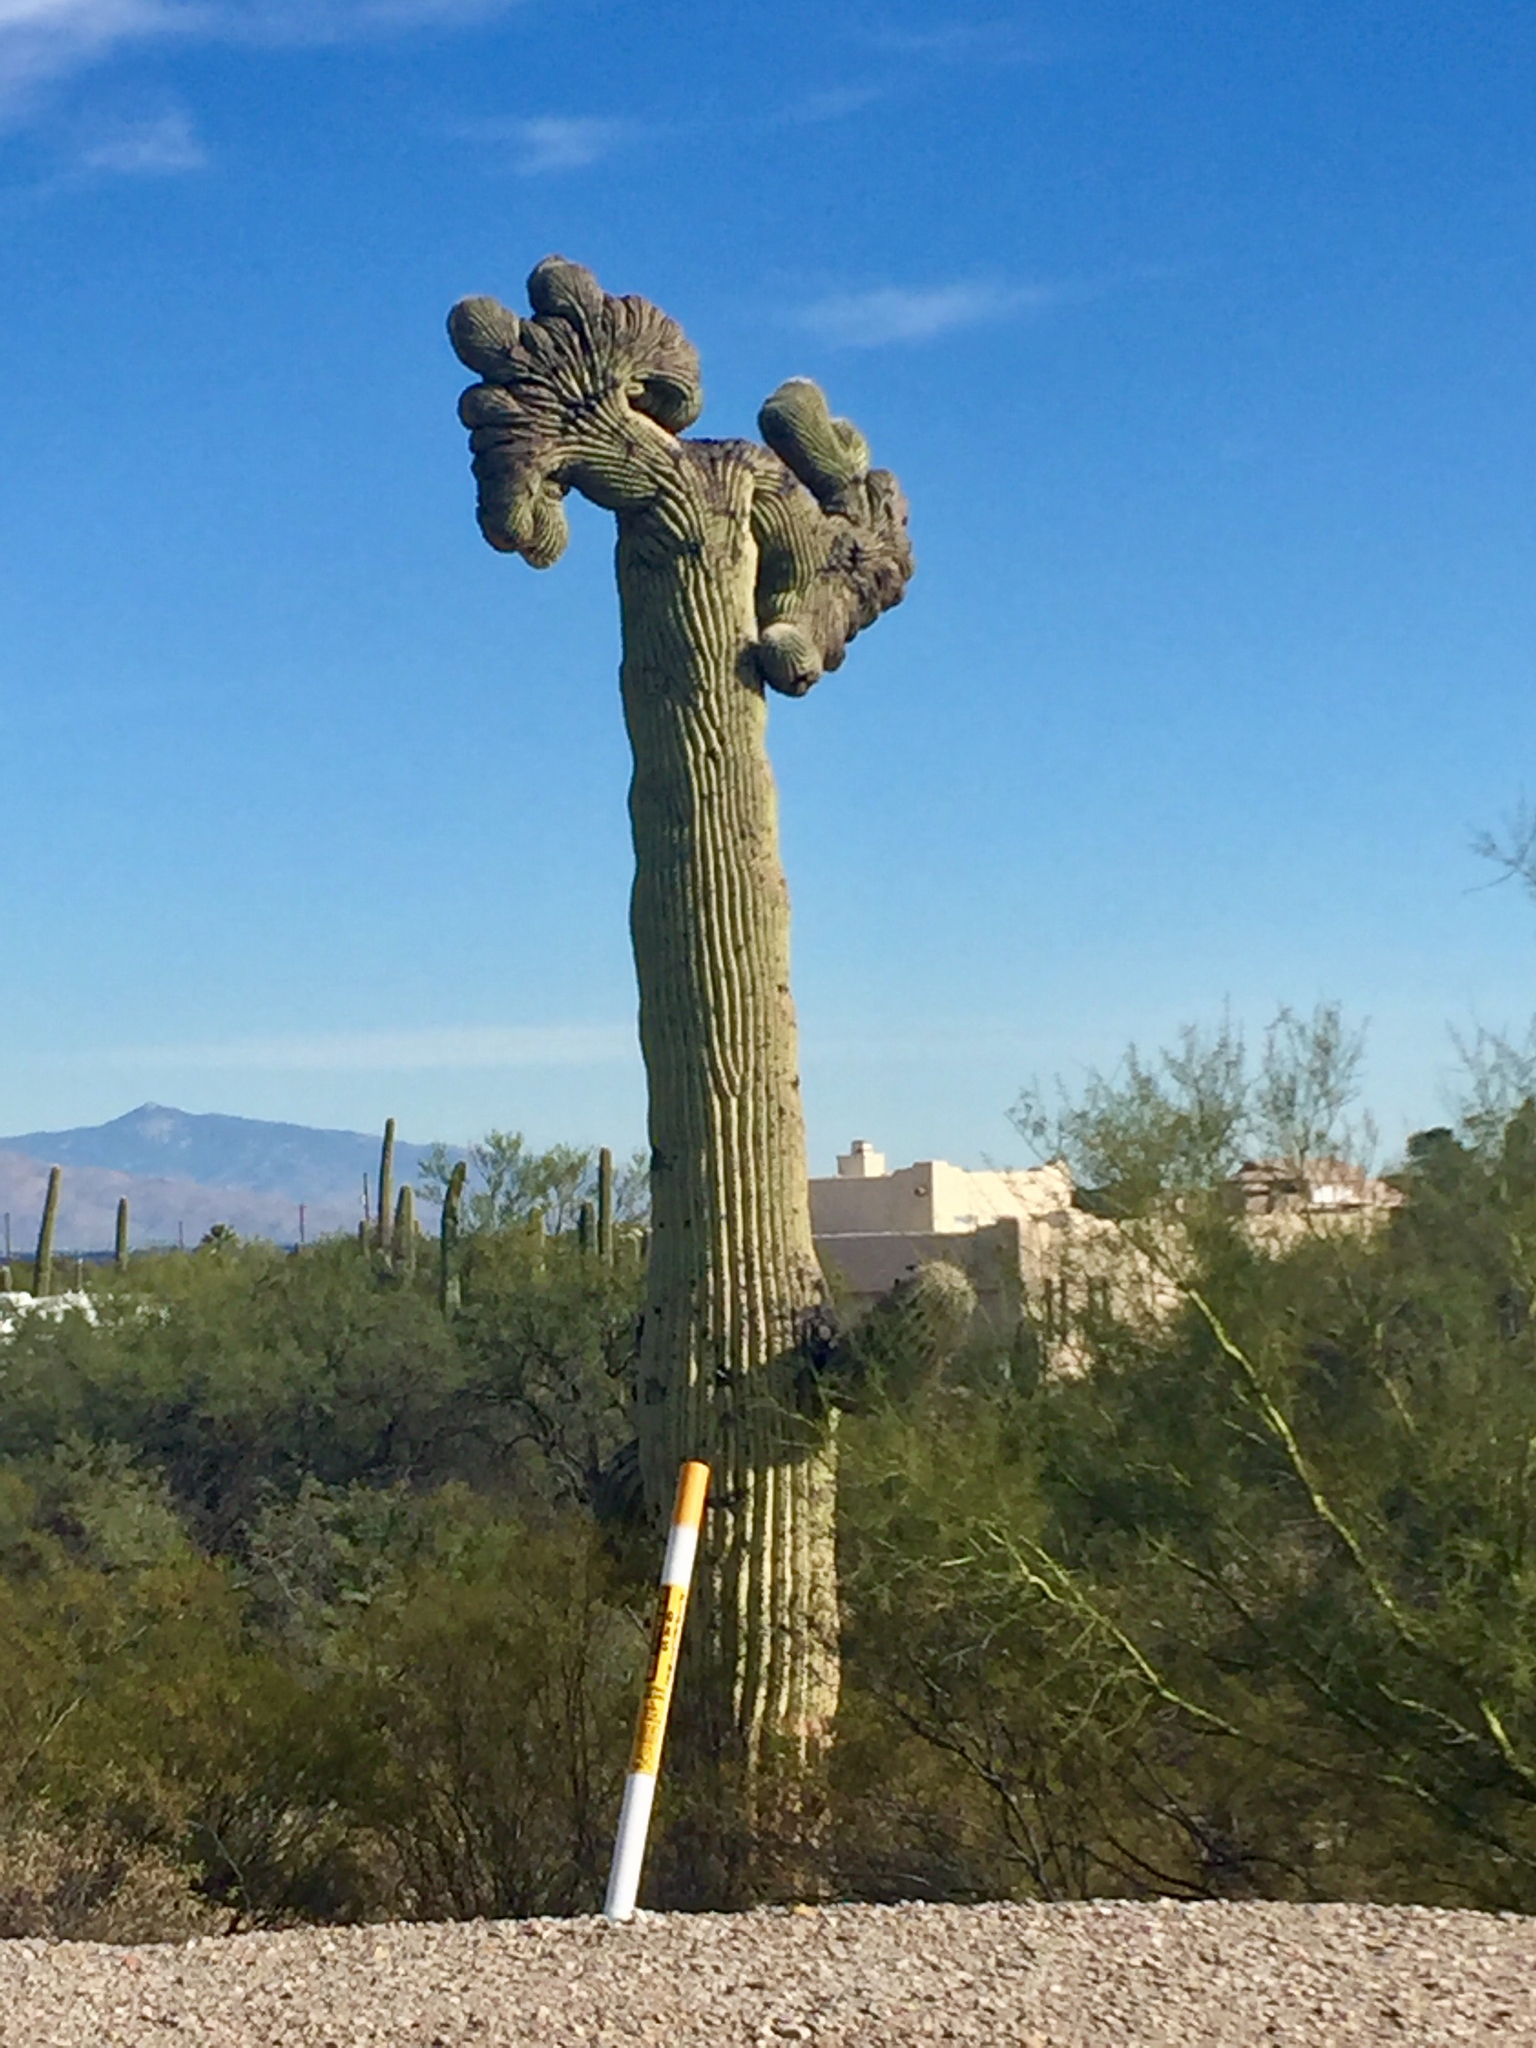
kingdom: Plantae
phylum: Tracheophyta
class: Magnoliopsida
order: Caryophyllales
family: Cactaceae
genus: Carnegiea
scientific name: Carnegiea gigantea
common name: Saguaro
